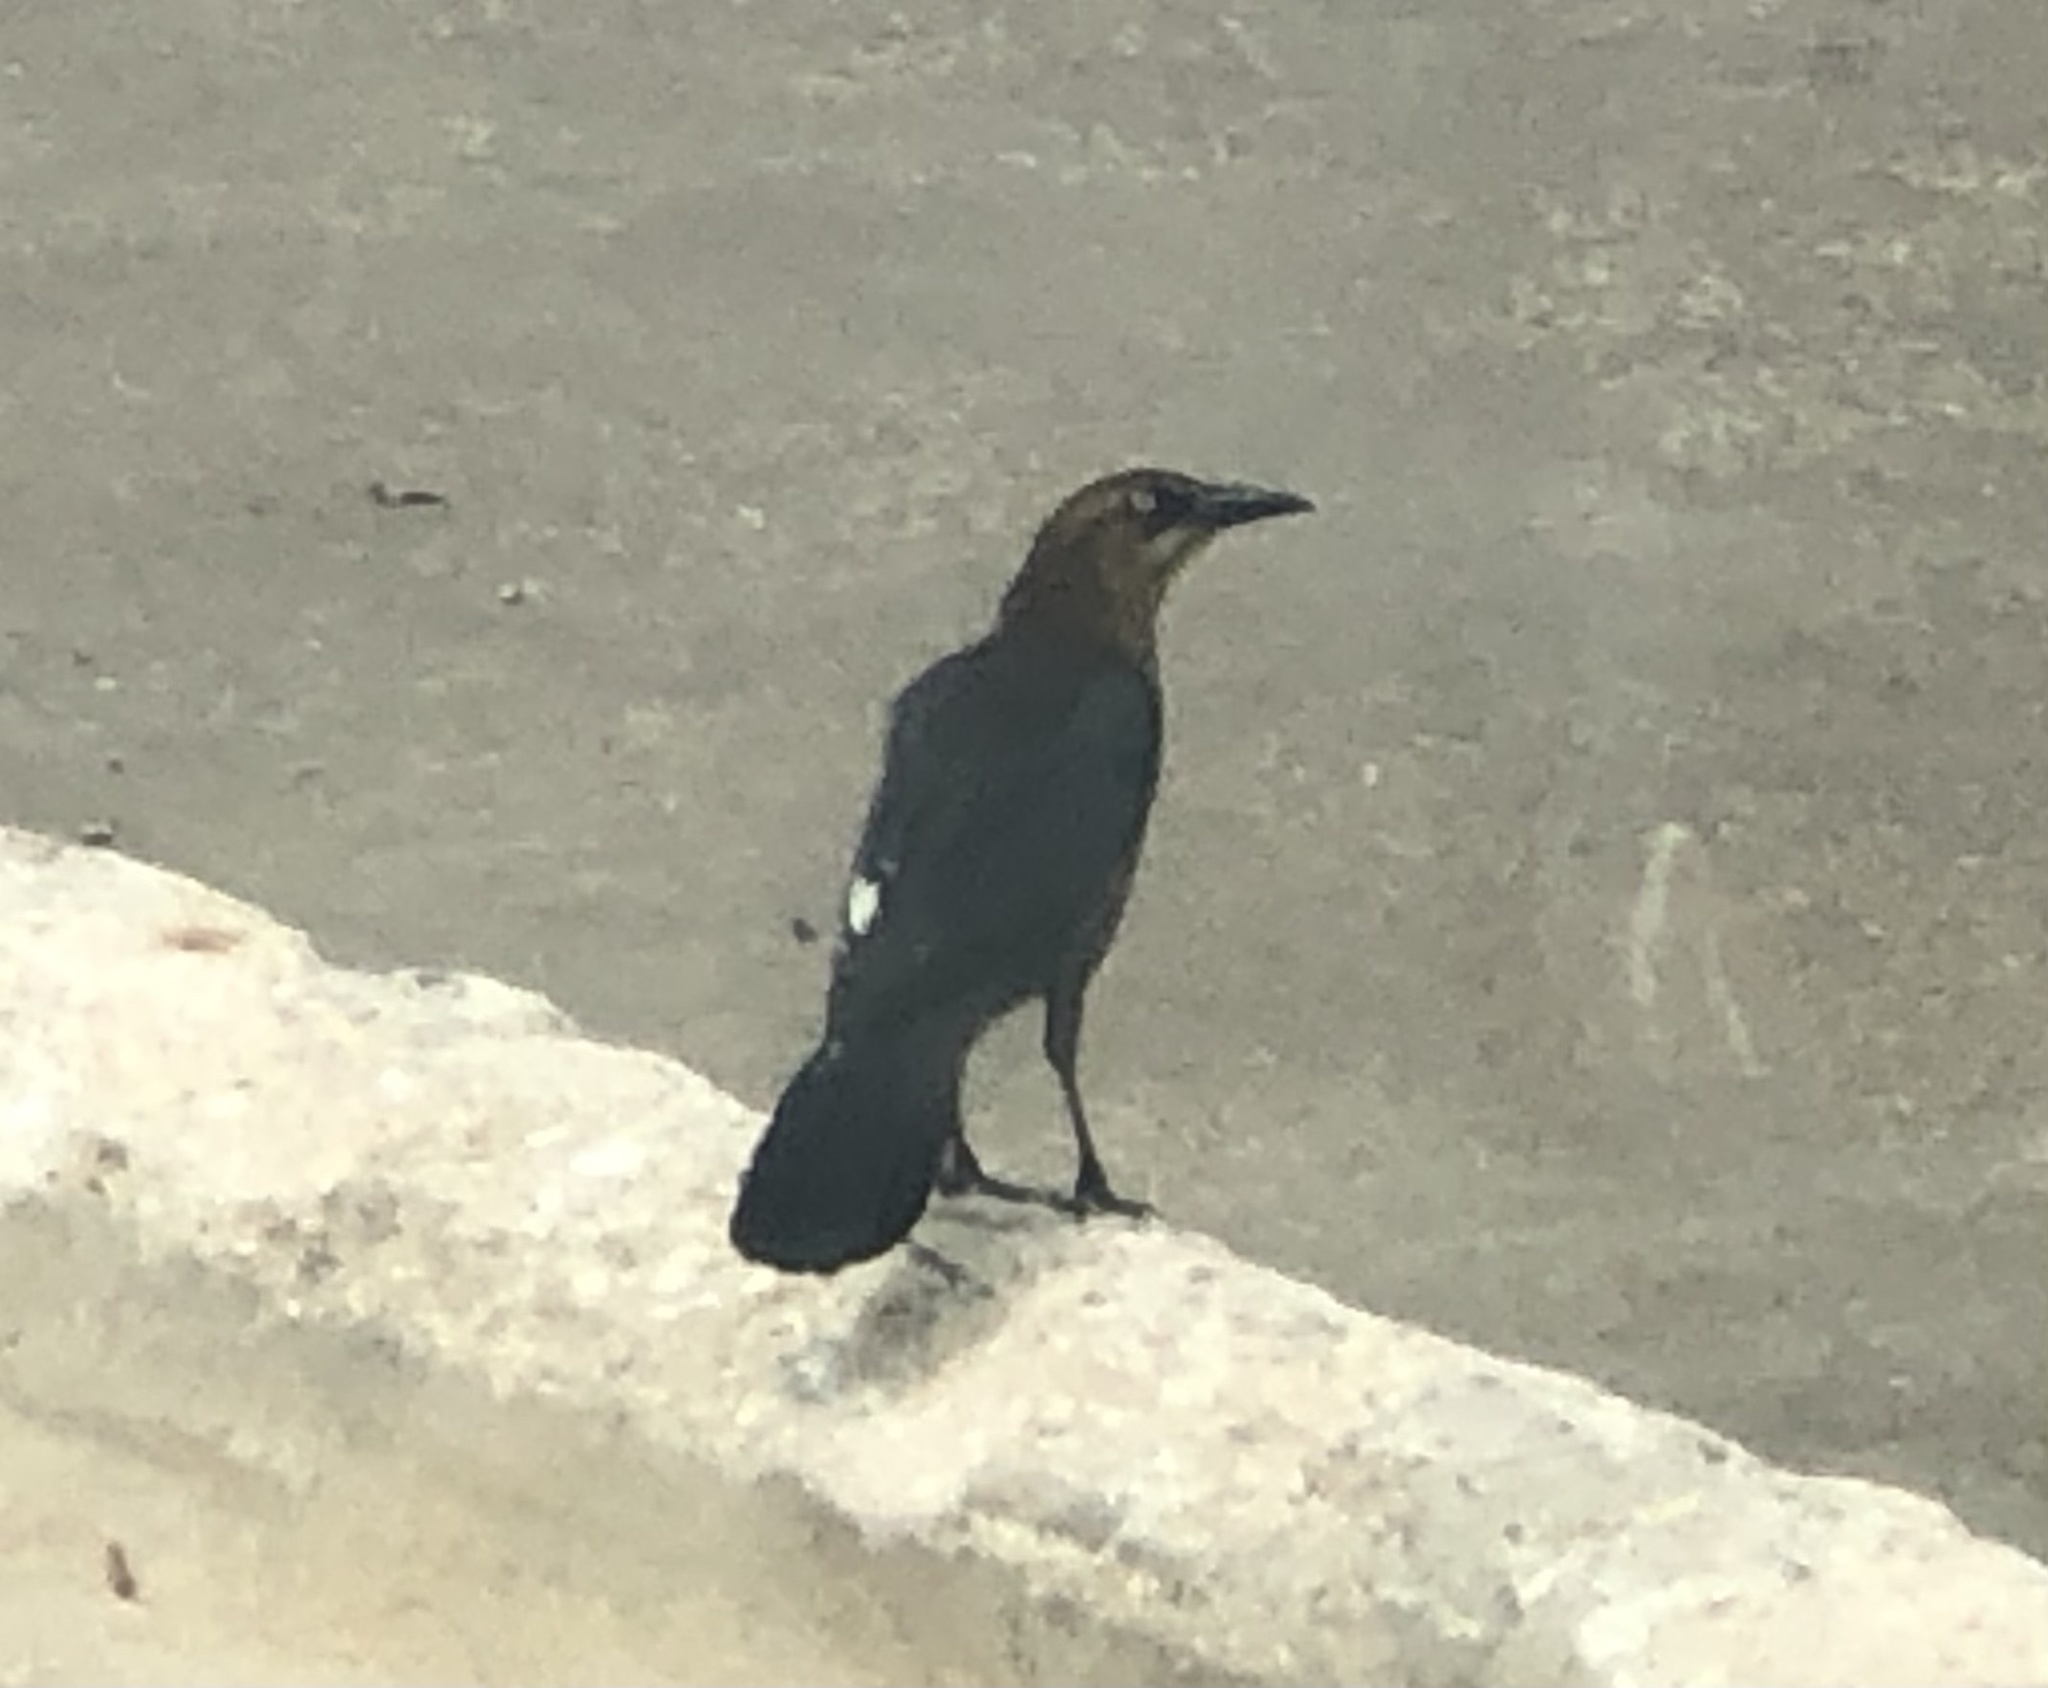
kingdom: Animalia
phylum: Chordata
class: Aves
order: Passeriformes
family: Icteridae
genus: Quiscalus
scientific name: Quiscalus mexicanus
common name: Great-tailed grackle
